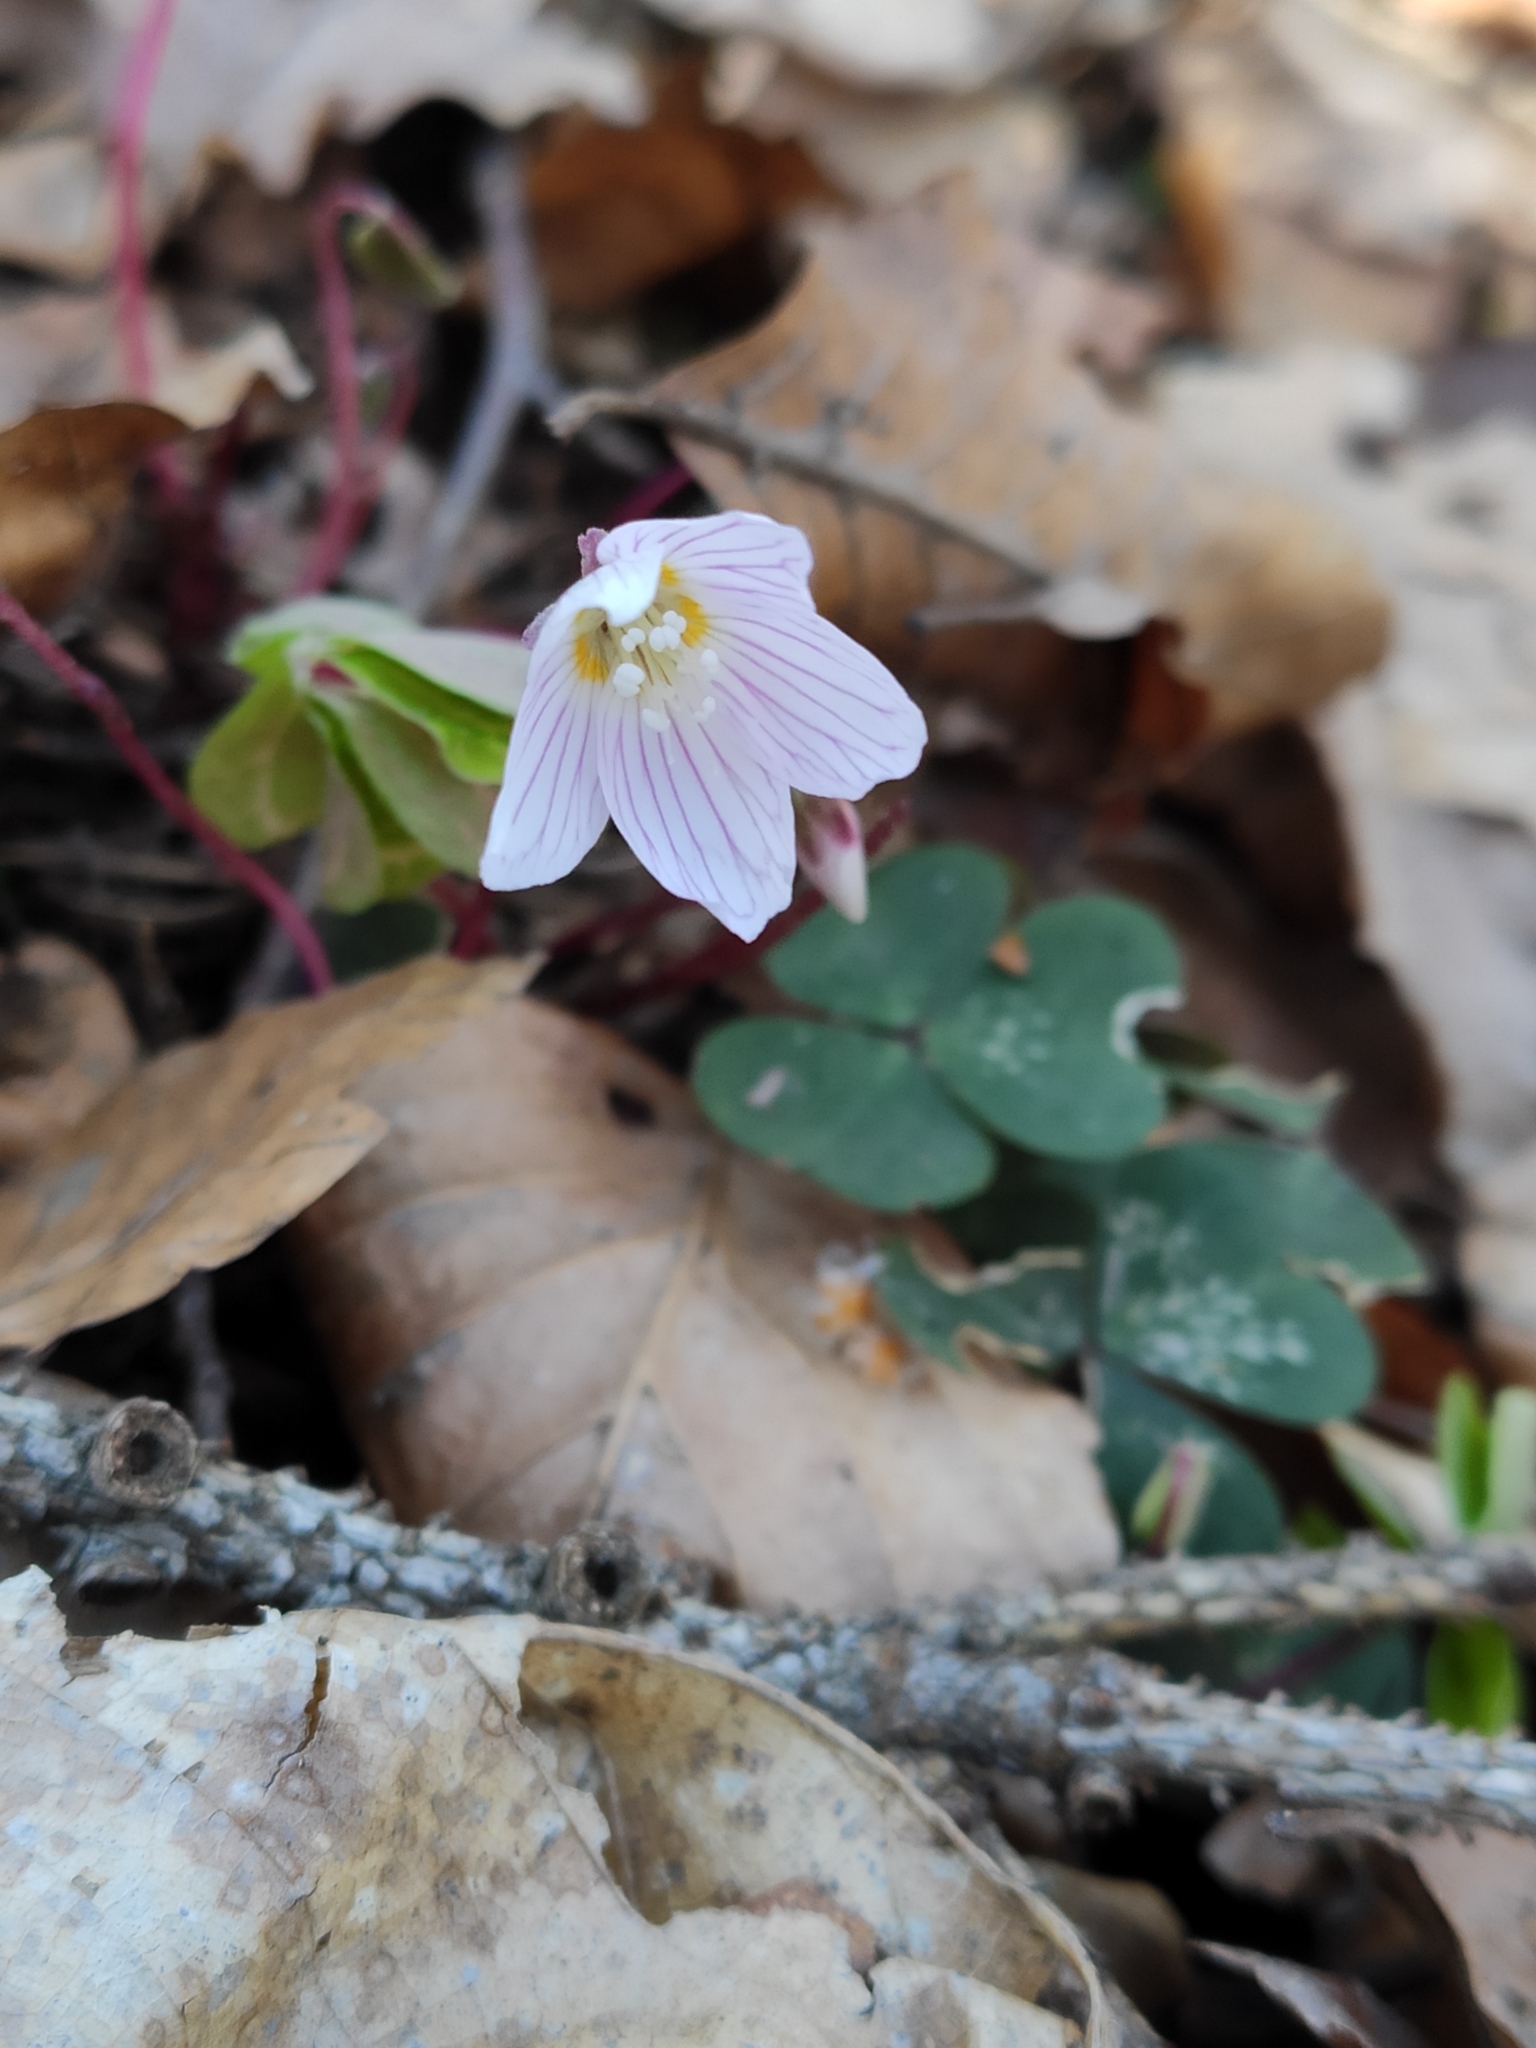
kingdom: Plantae
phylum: Tracheophyta
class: Magnoliopsida
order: Oxalidales
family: Oxalidaceae
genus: Oxalis
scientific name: Oxalis acetosella
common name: Wood-sorrel
